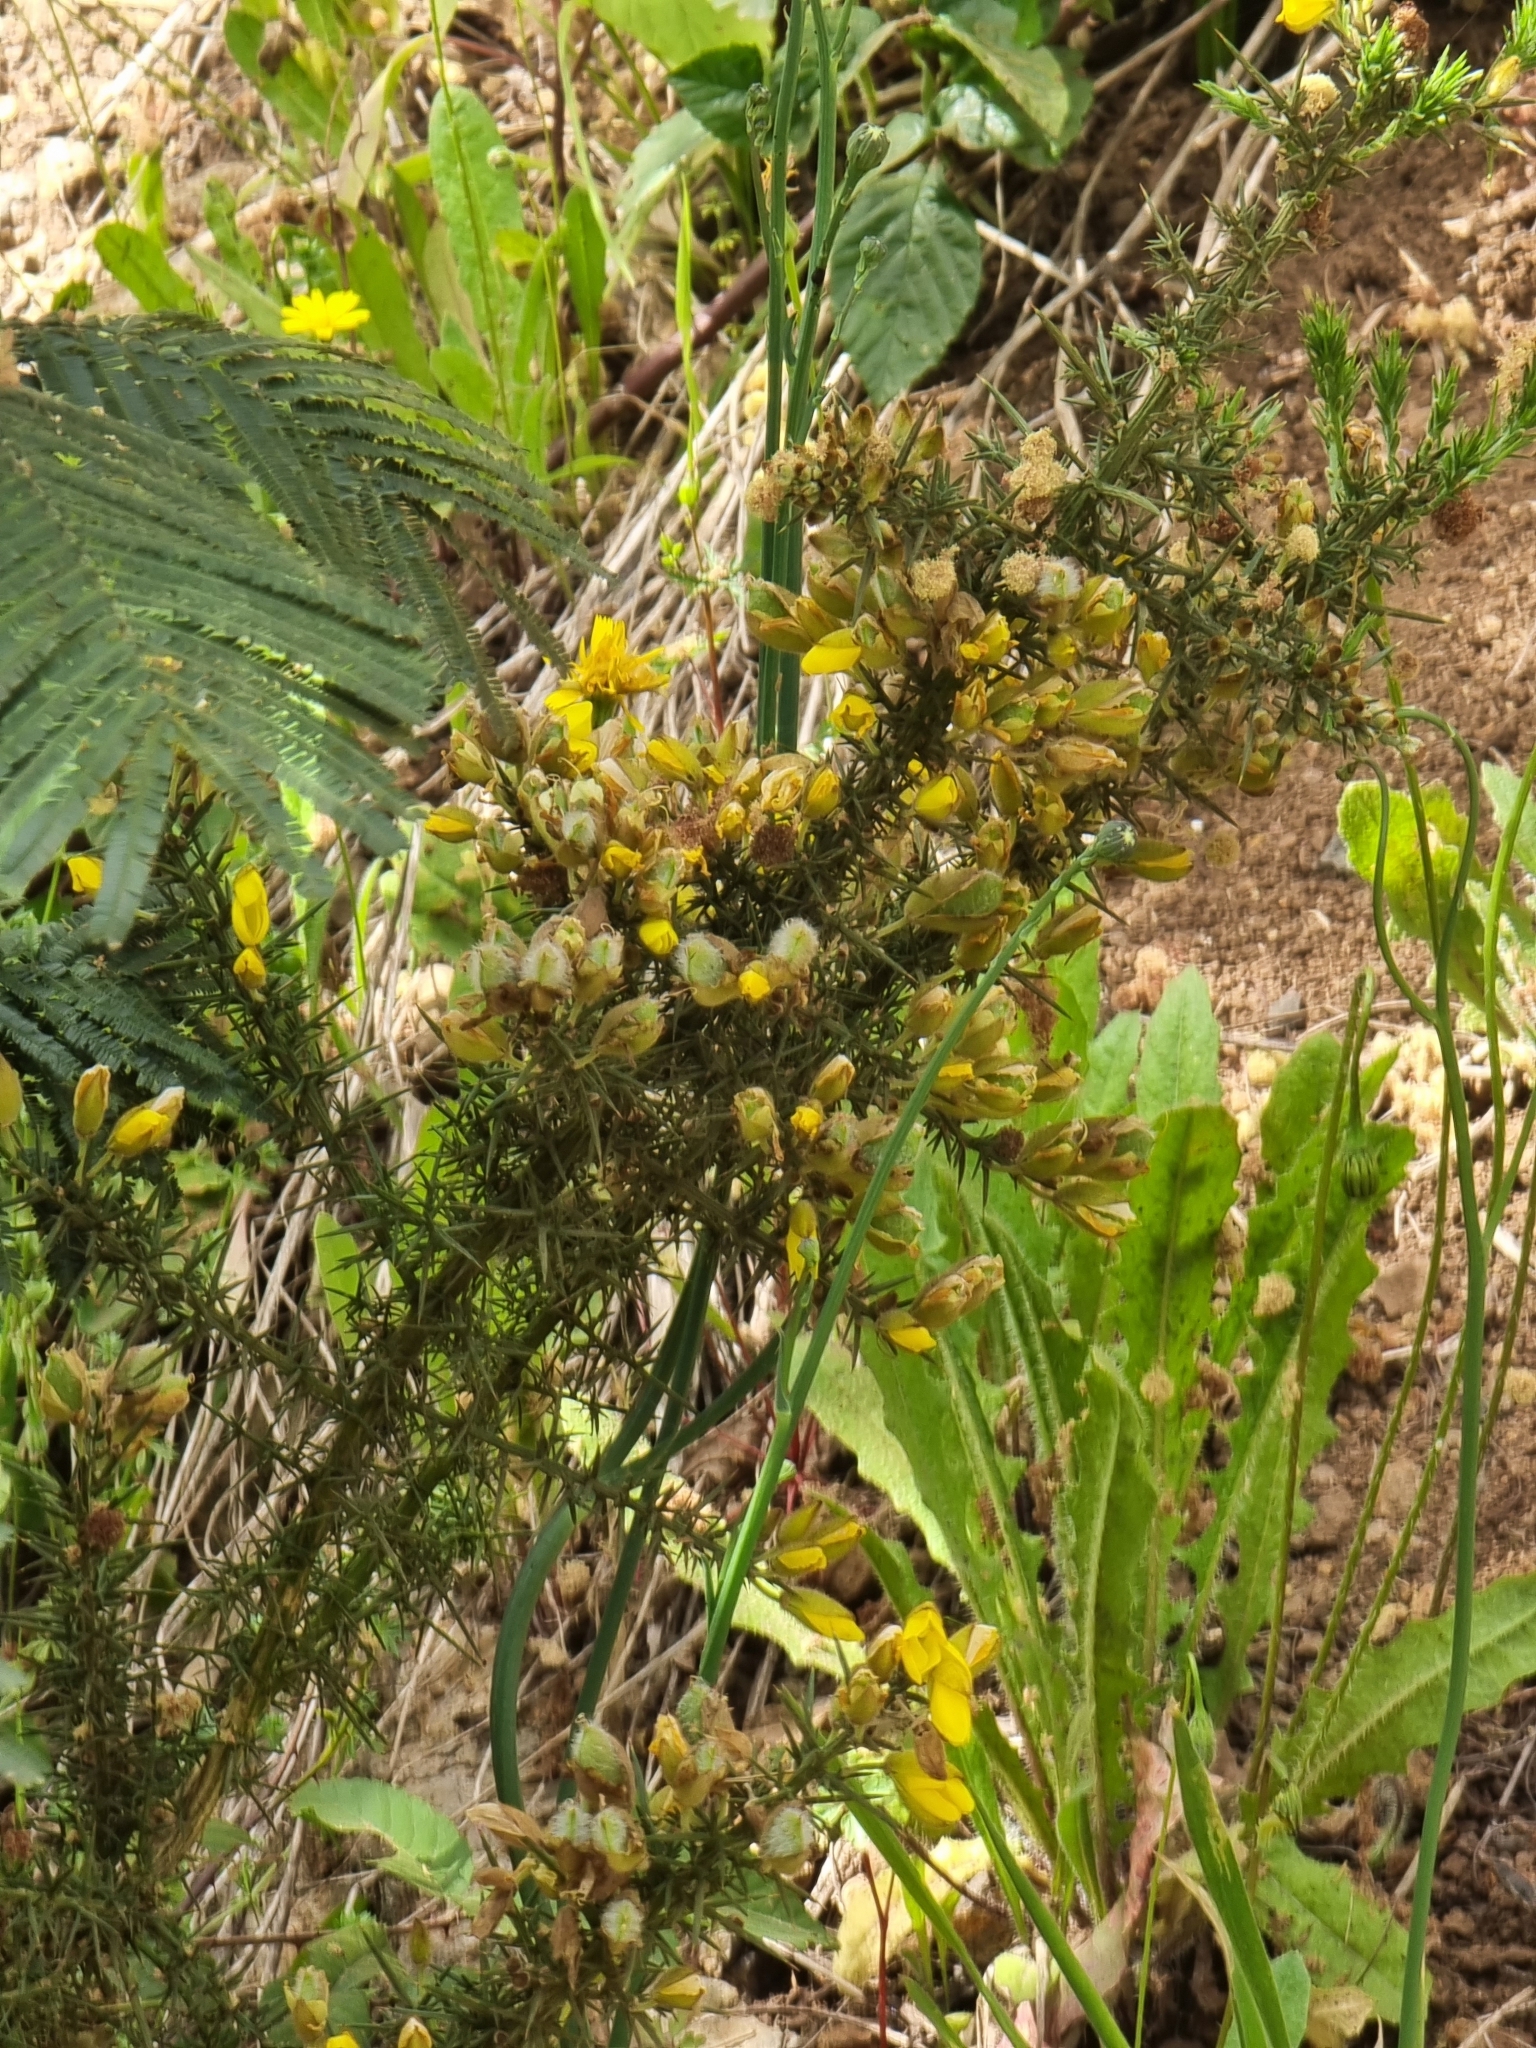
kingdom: Plantae
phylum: Tracheophyta
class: Magnoliopsida
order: Fabales
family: Fabaceae
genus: Ulex
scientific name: Ulex europaeus
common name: Common gorse
